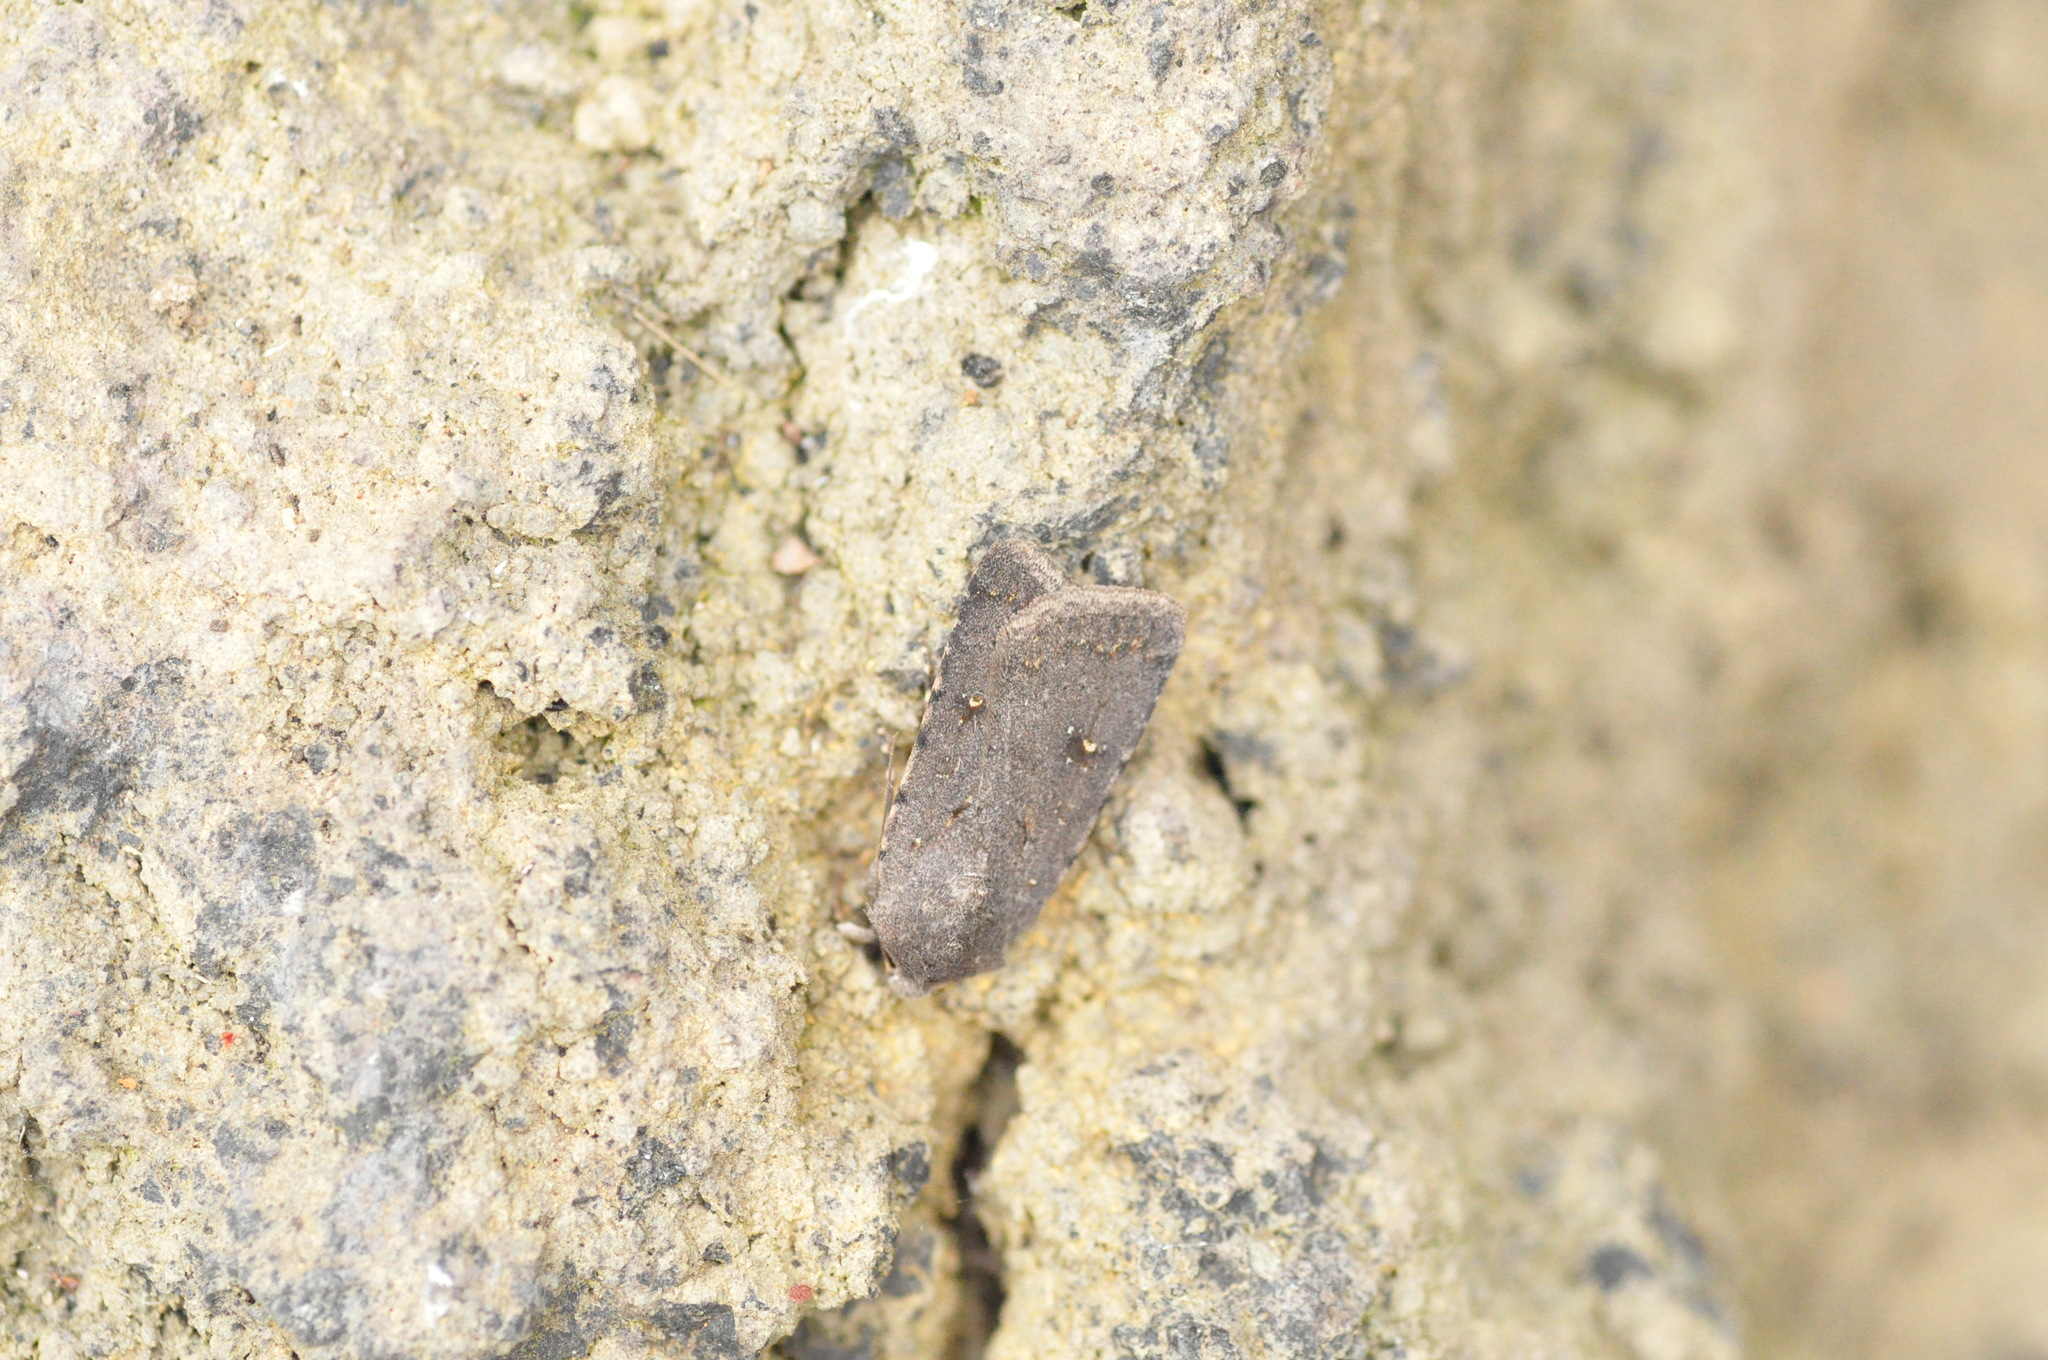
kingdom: Animalia
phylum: Arthropoda
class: Insecta
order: Lepidoptera
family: Noctuidae
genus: Caradrina
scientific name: Caradrina rebeli
